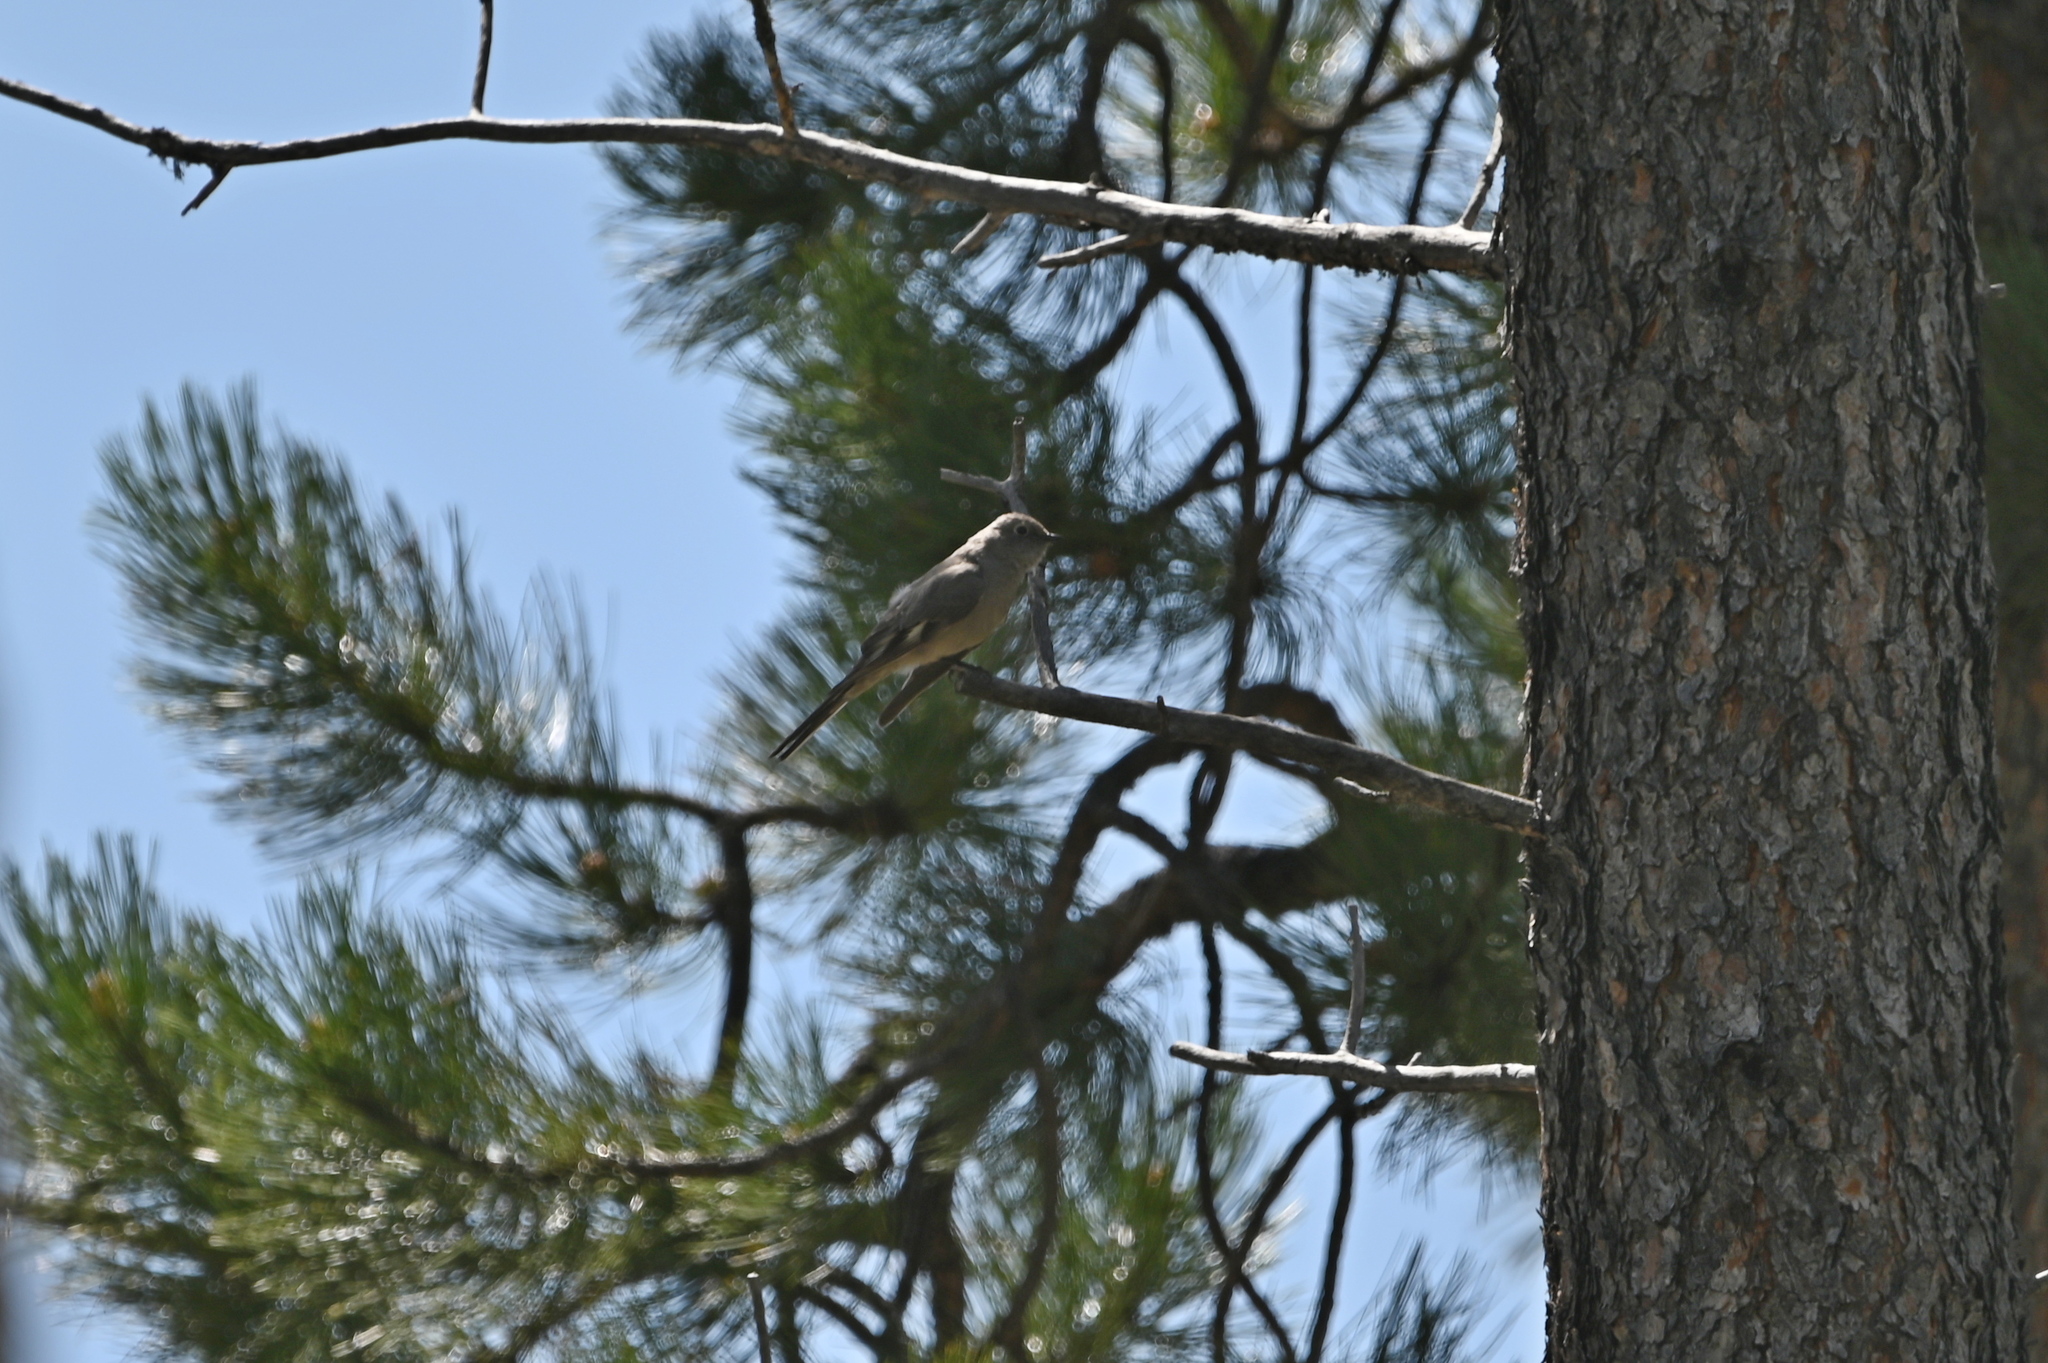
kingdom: Animalia
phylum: Chordata
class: Aves
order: Passeriformes
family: Turdidae
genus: Myadestes
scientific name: Myadestes townsendi
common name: Townsend's solitaire
